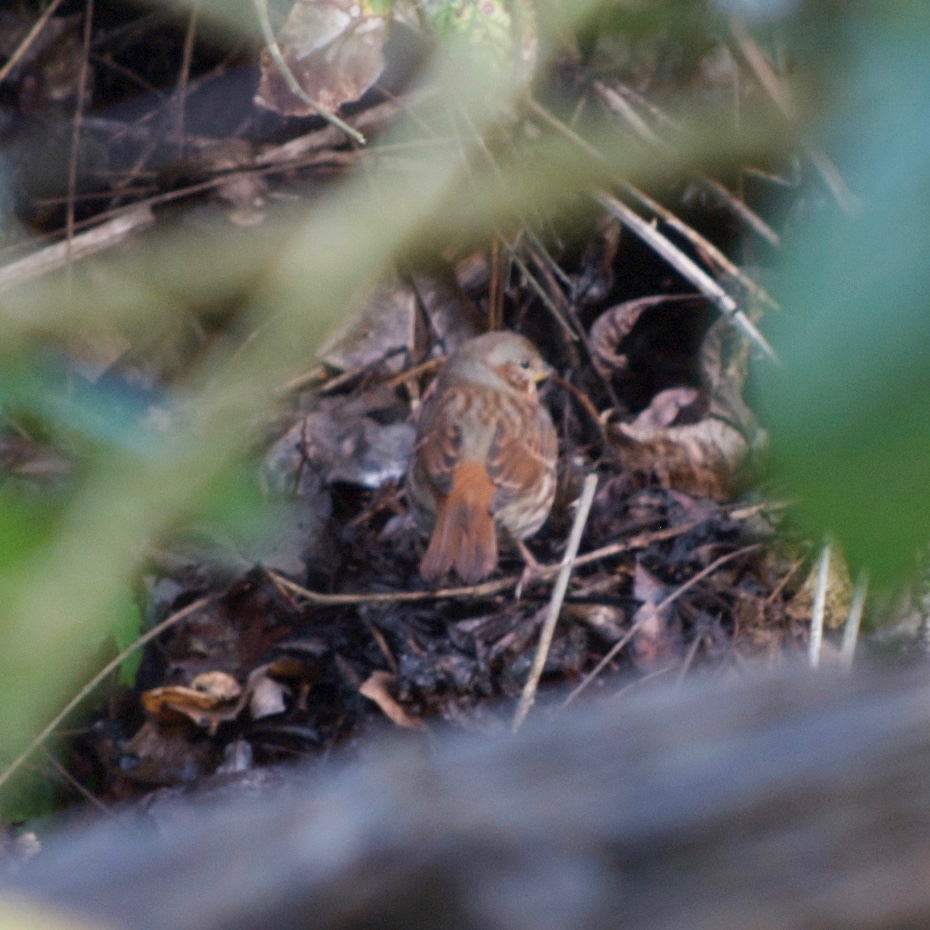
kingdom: Animalia
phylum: Chordata
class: Aves
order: Passeriformes
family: Passerellidae
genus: Passerella
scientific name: Passerella iliaca
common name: Fox sparrow
